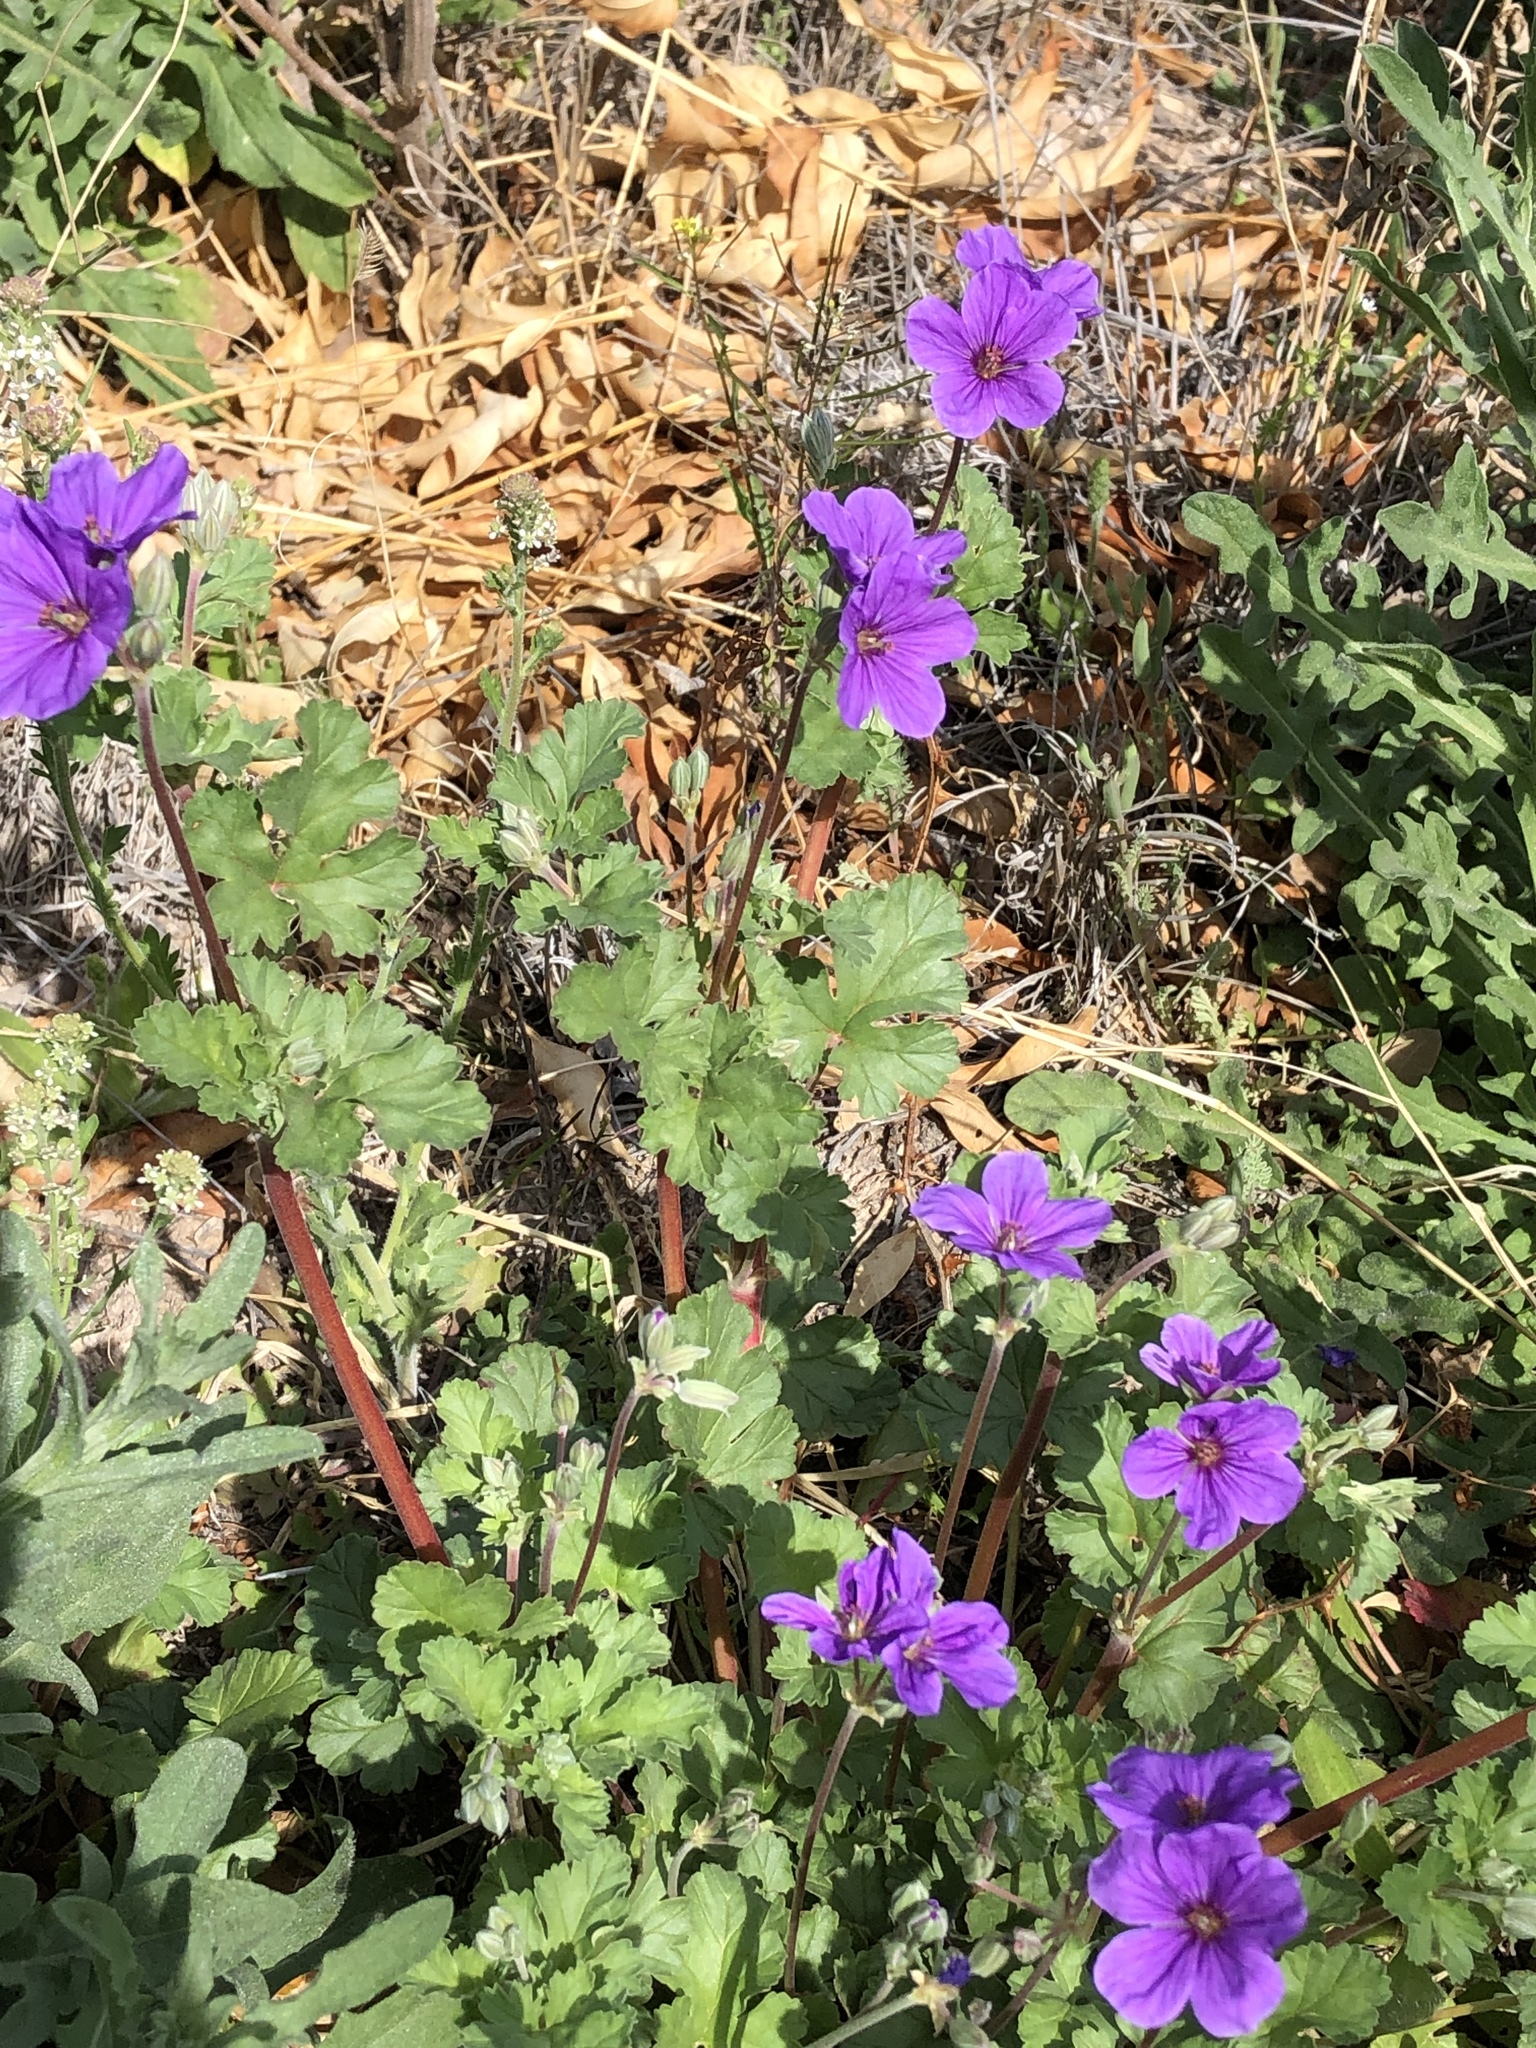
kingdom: Plantae
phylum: Tracheophyta
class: Magnoliopsida
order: Geraniales
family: Geraniaceae
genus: Erodium
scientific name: Erodium texanum
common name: Texas stork's-bill
